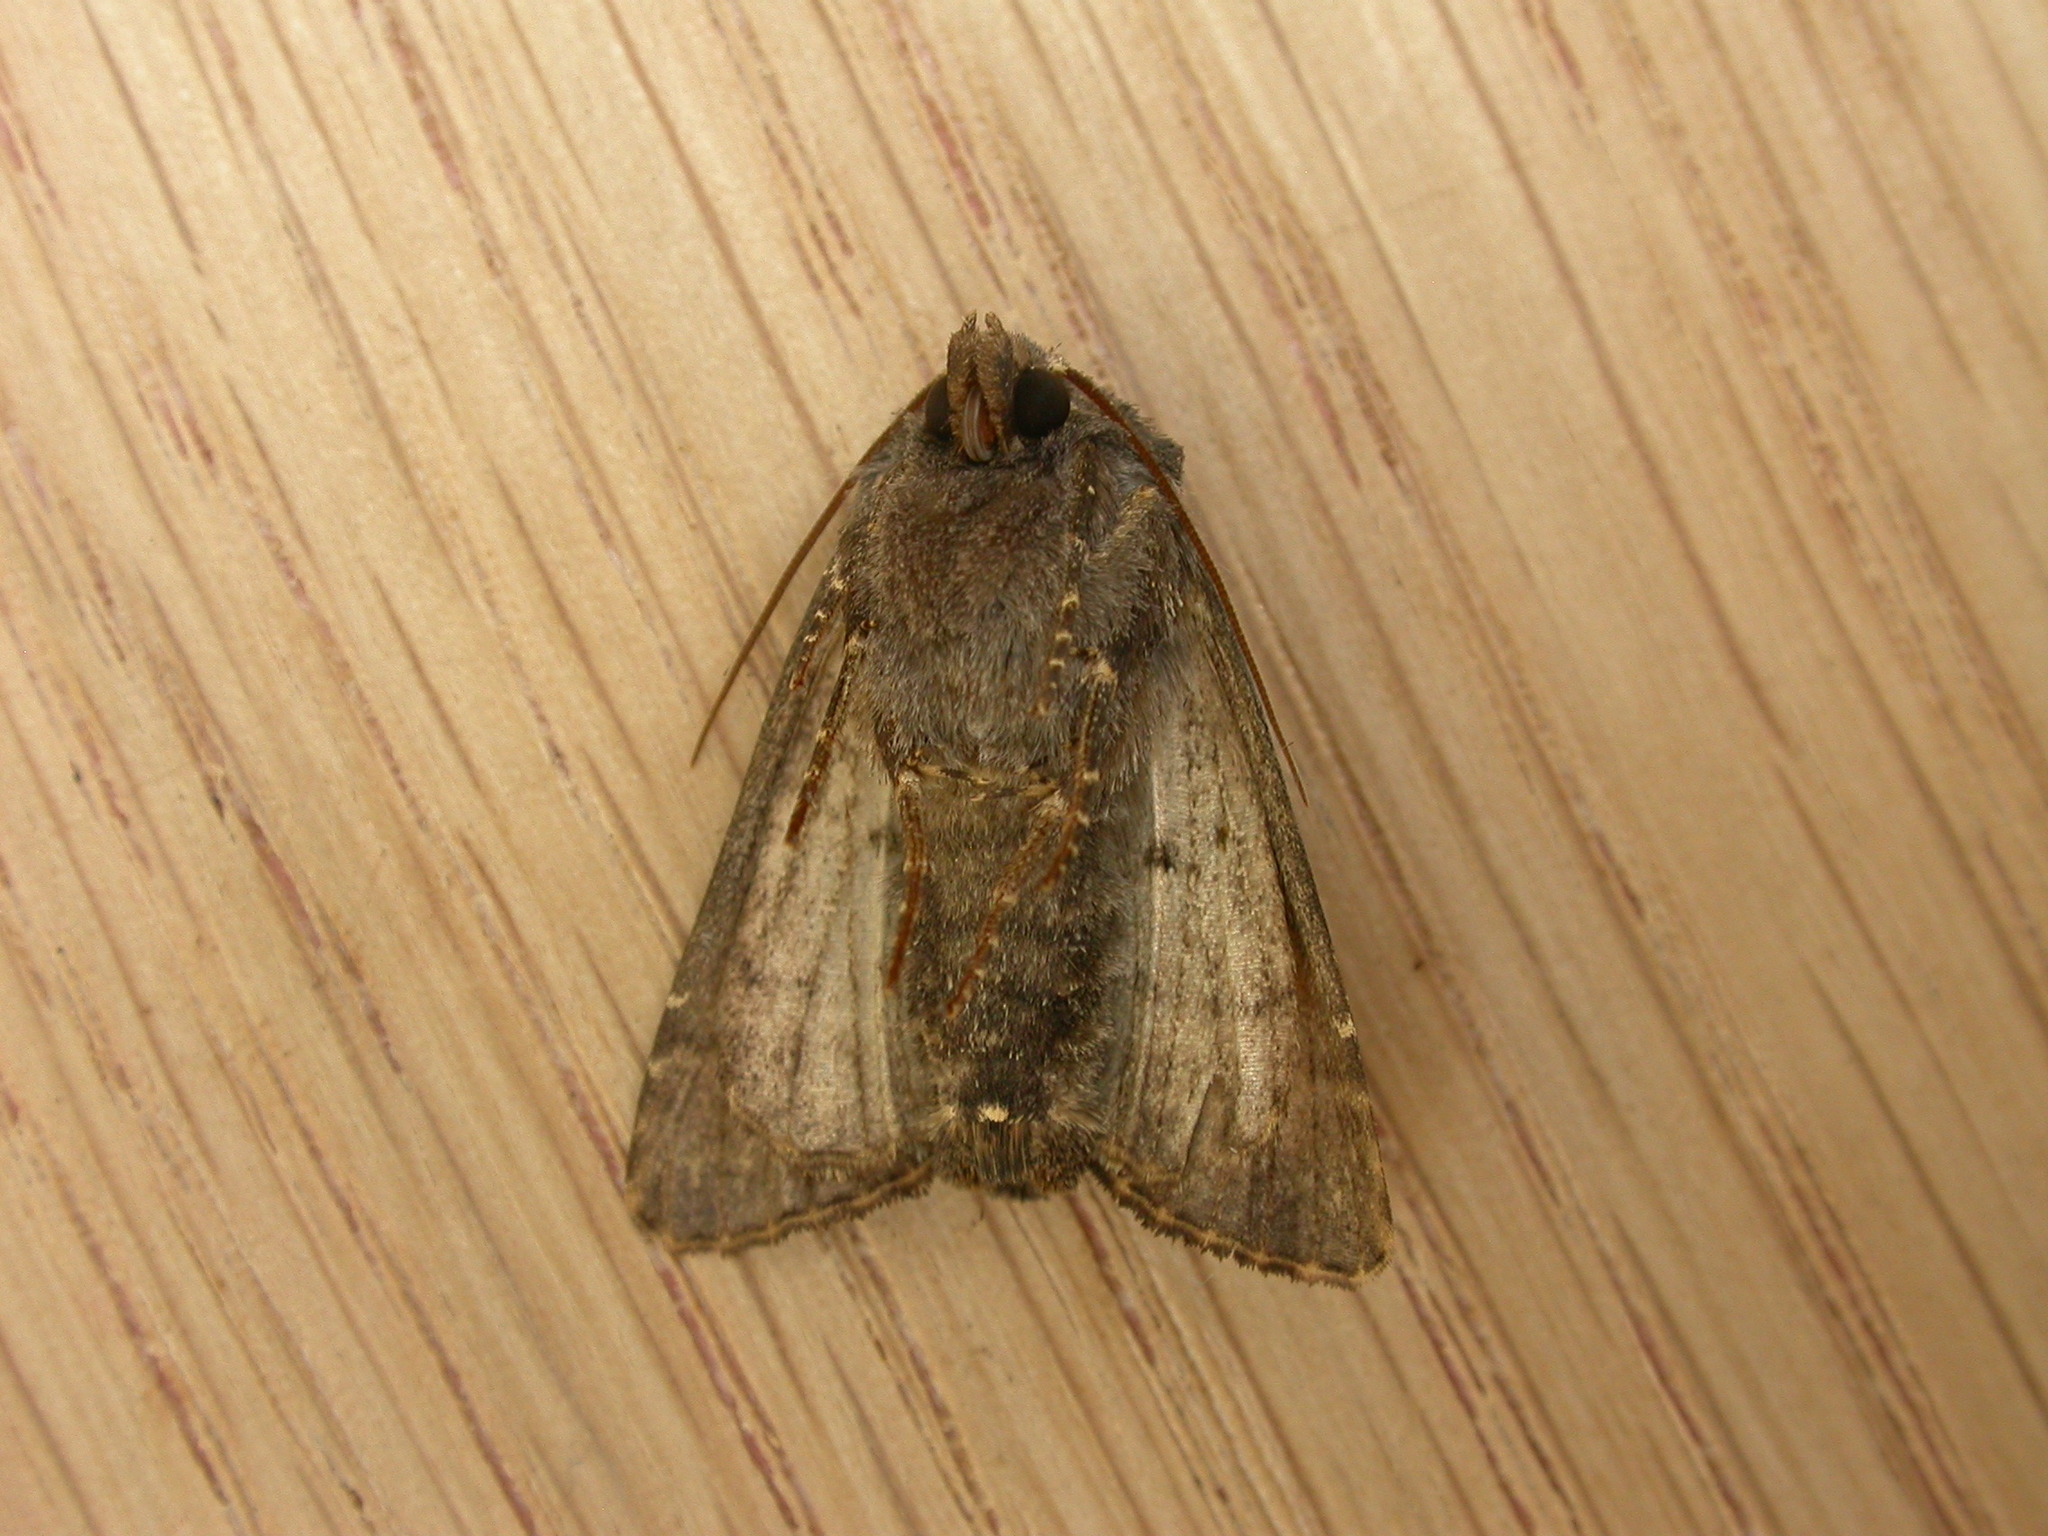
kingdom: Animalia
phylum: Arthropoda
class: Insecta
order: Lepidoptera
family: Noctuidae
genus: Euplexia
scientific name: Euplexia lucipara
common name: Small angle shades
